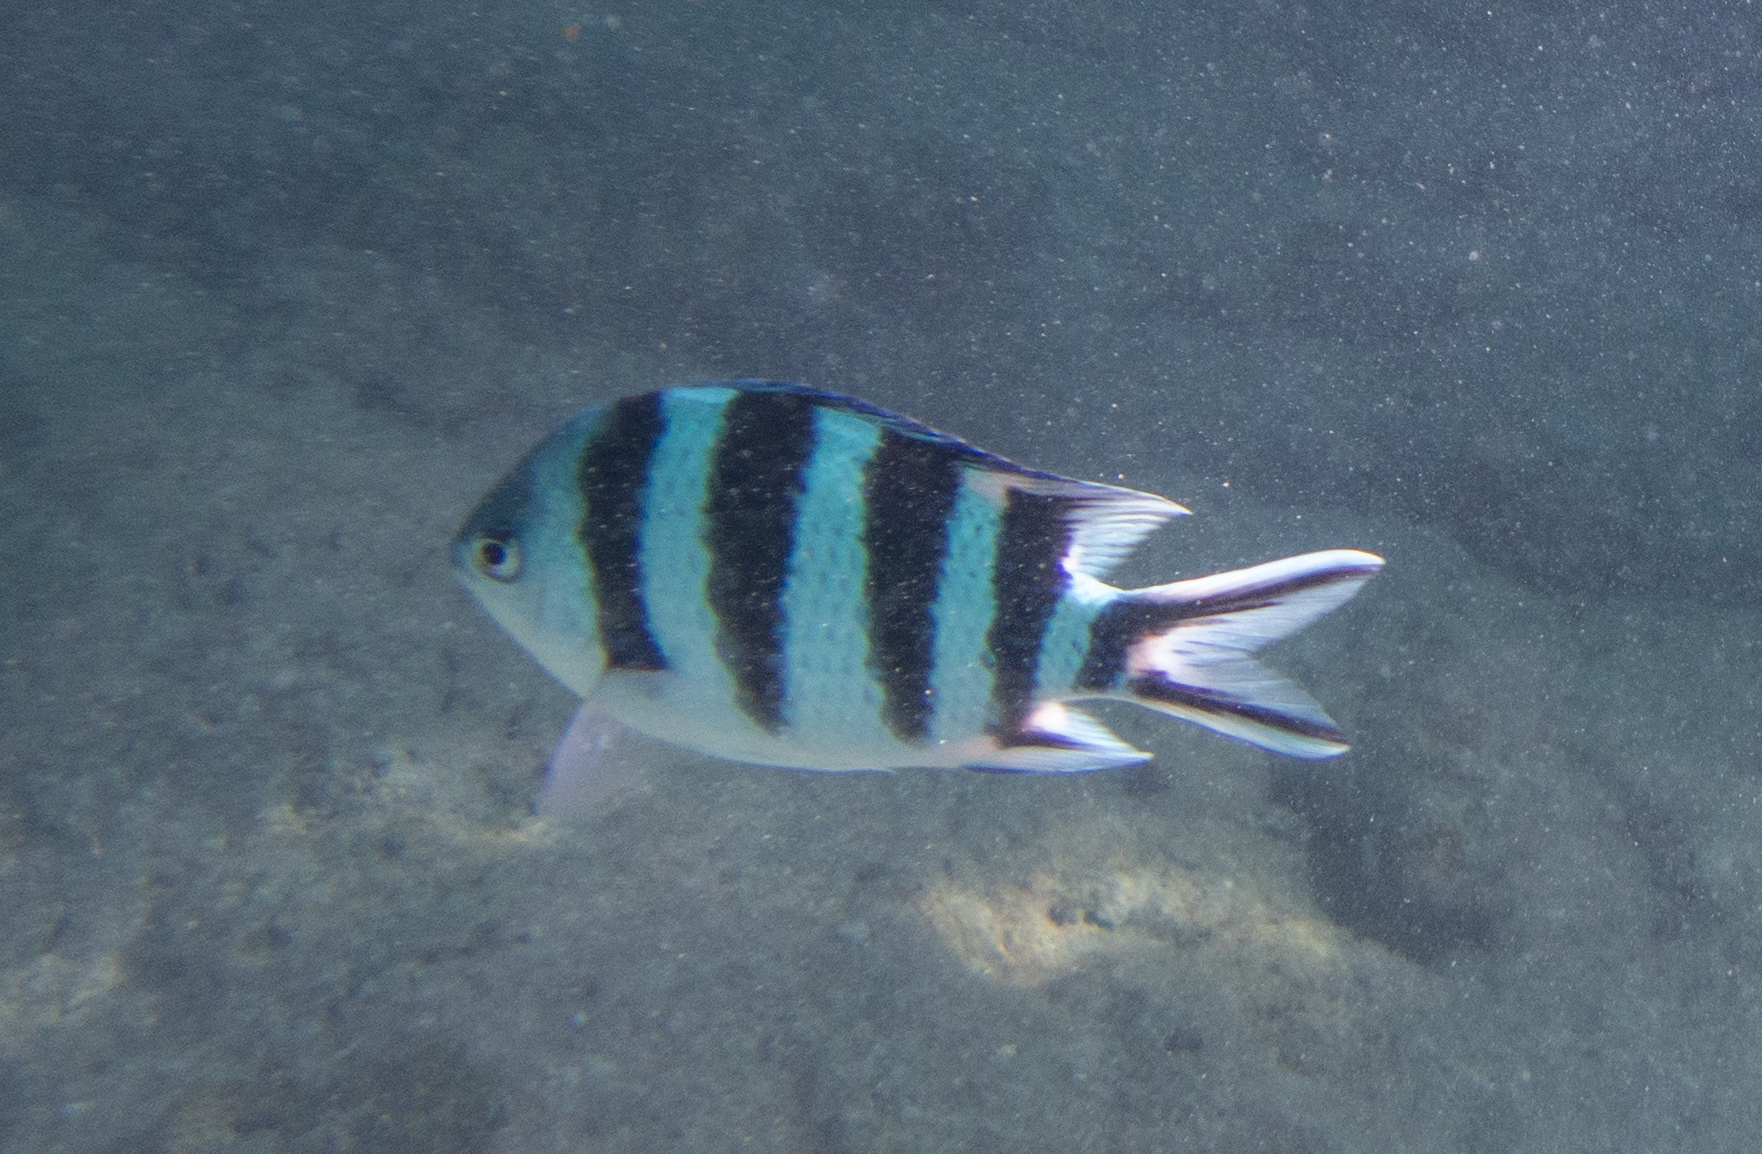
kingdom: Animalia
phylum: Chordata
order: Perciformes
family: Pomacentridae
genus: Abudefduf
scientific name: Abudefduf sexfasciatus
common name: Scissortail sergeant
